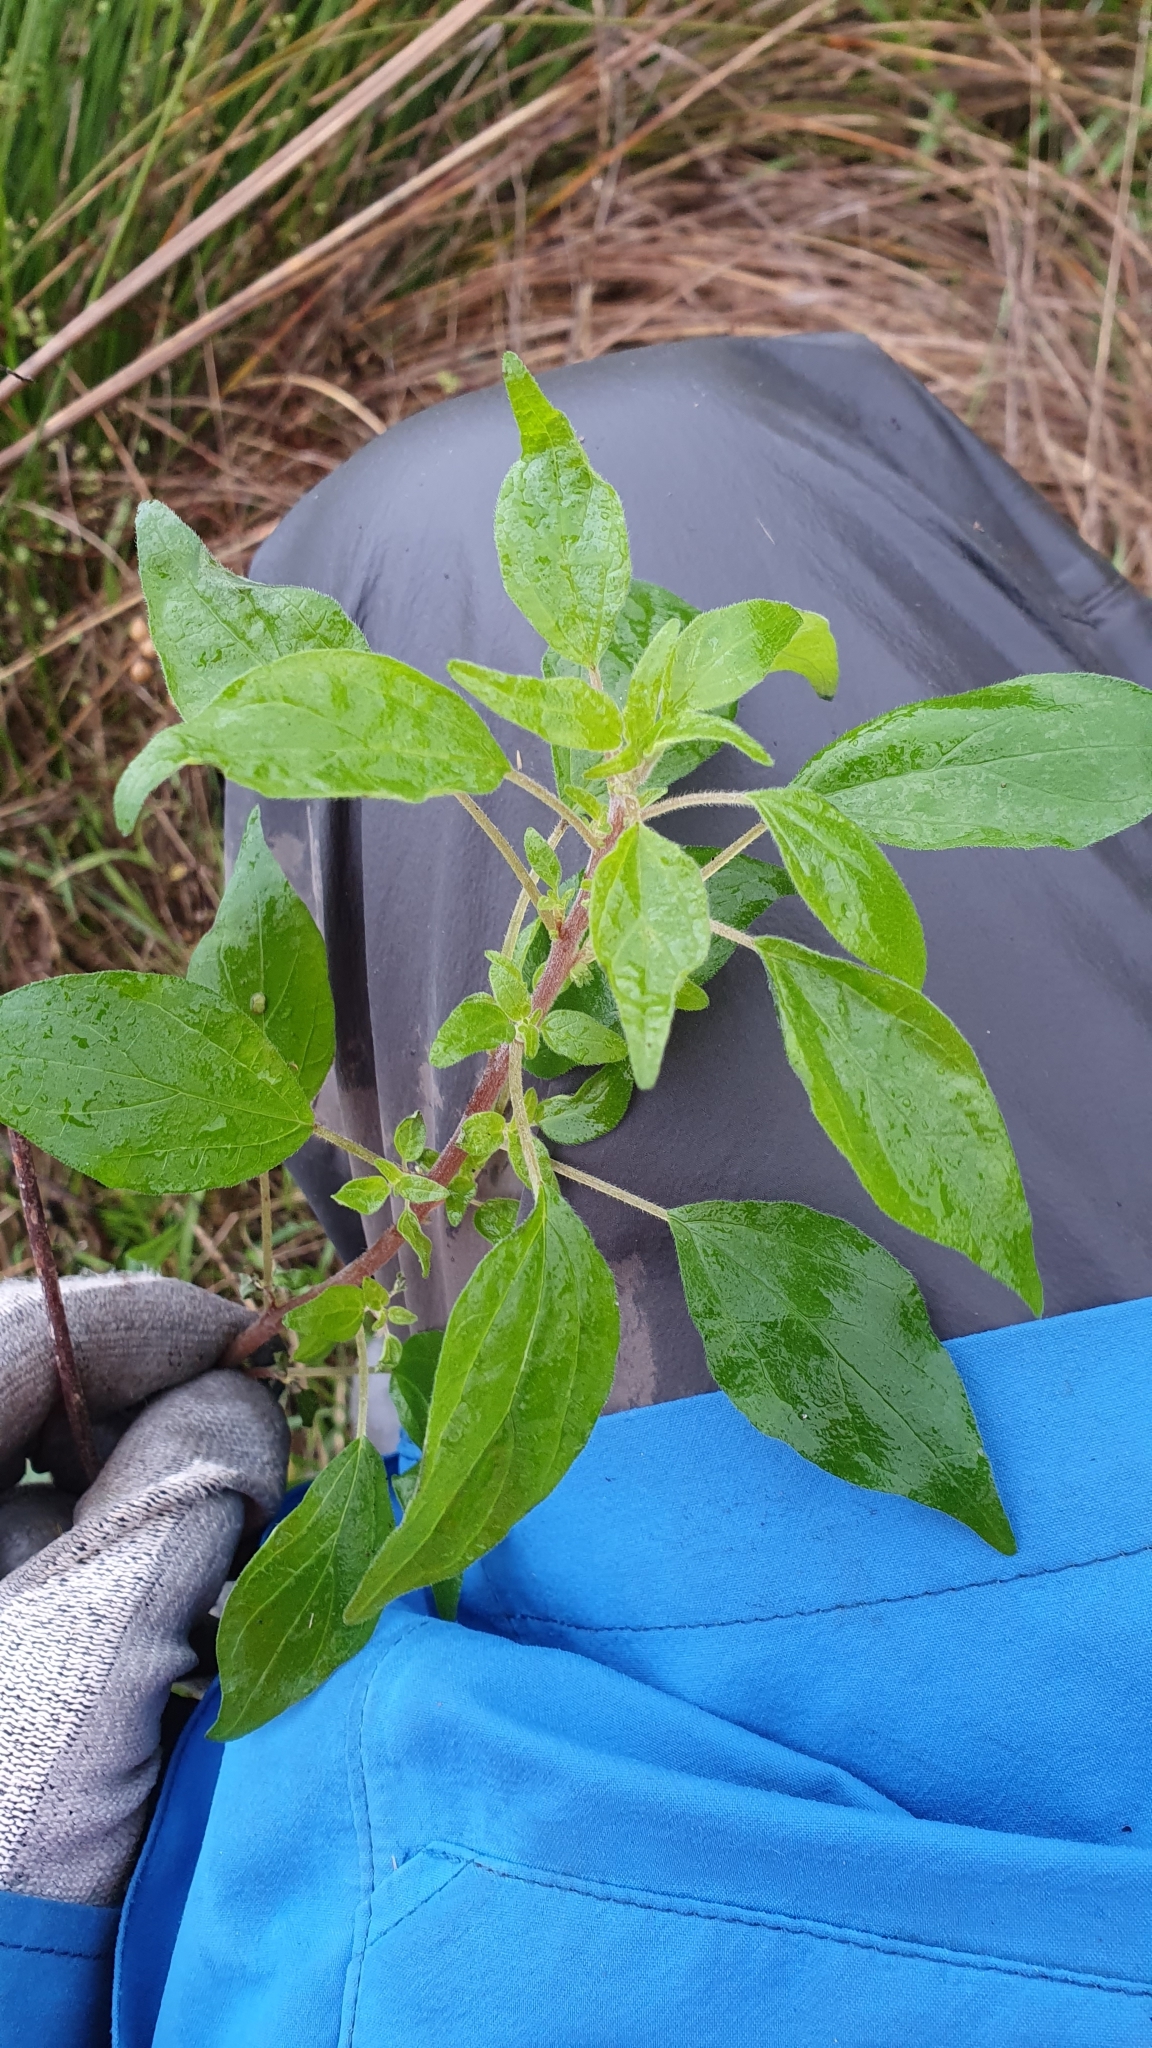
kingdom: Plantae
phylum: Tracheophyta
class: Magnoliopsida
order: Rosales
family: Urticaceae
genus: Parietaria
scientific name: Parietaria judaica
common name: Pellitory-of-the-wall
